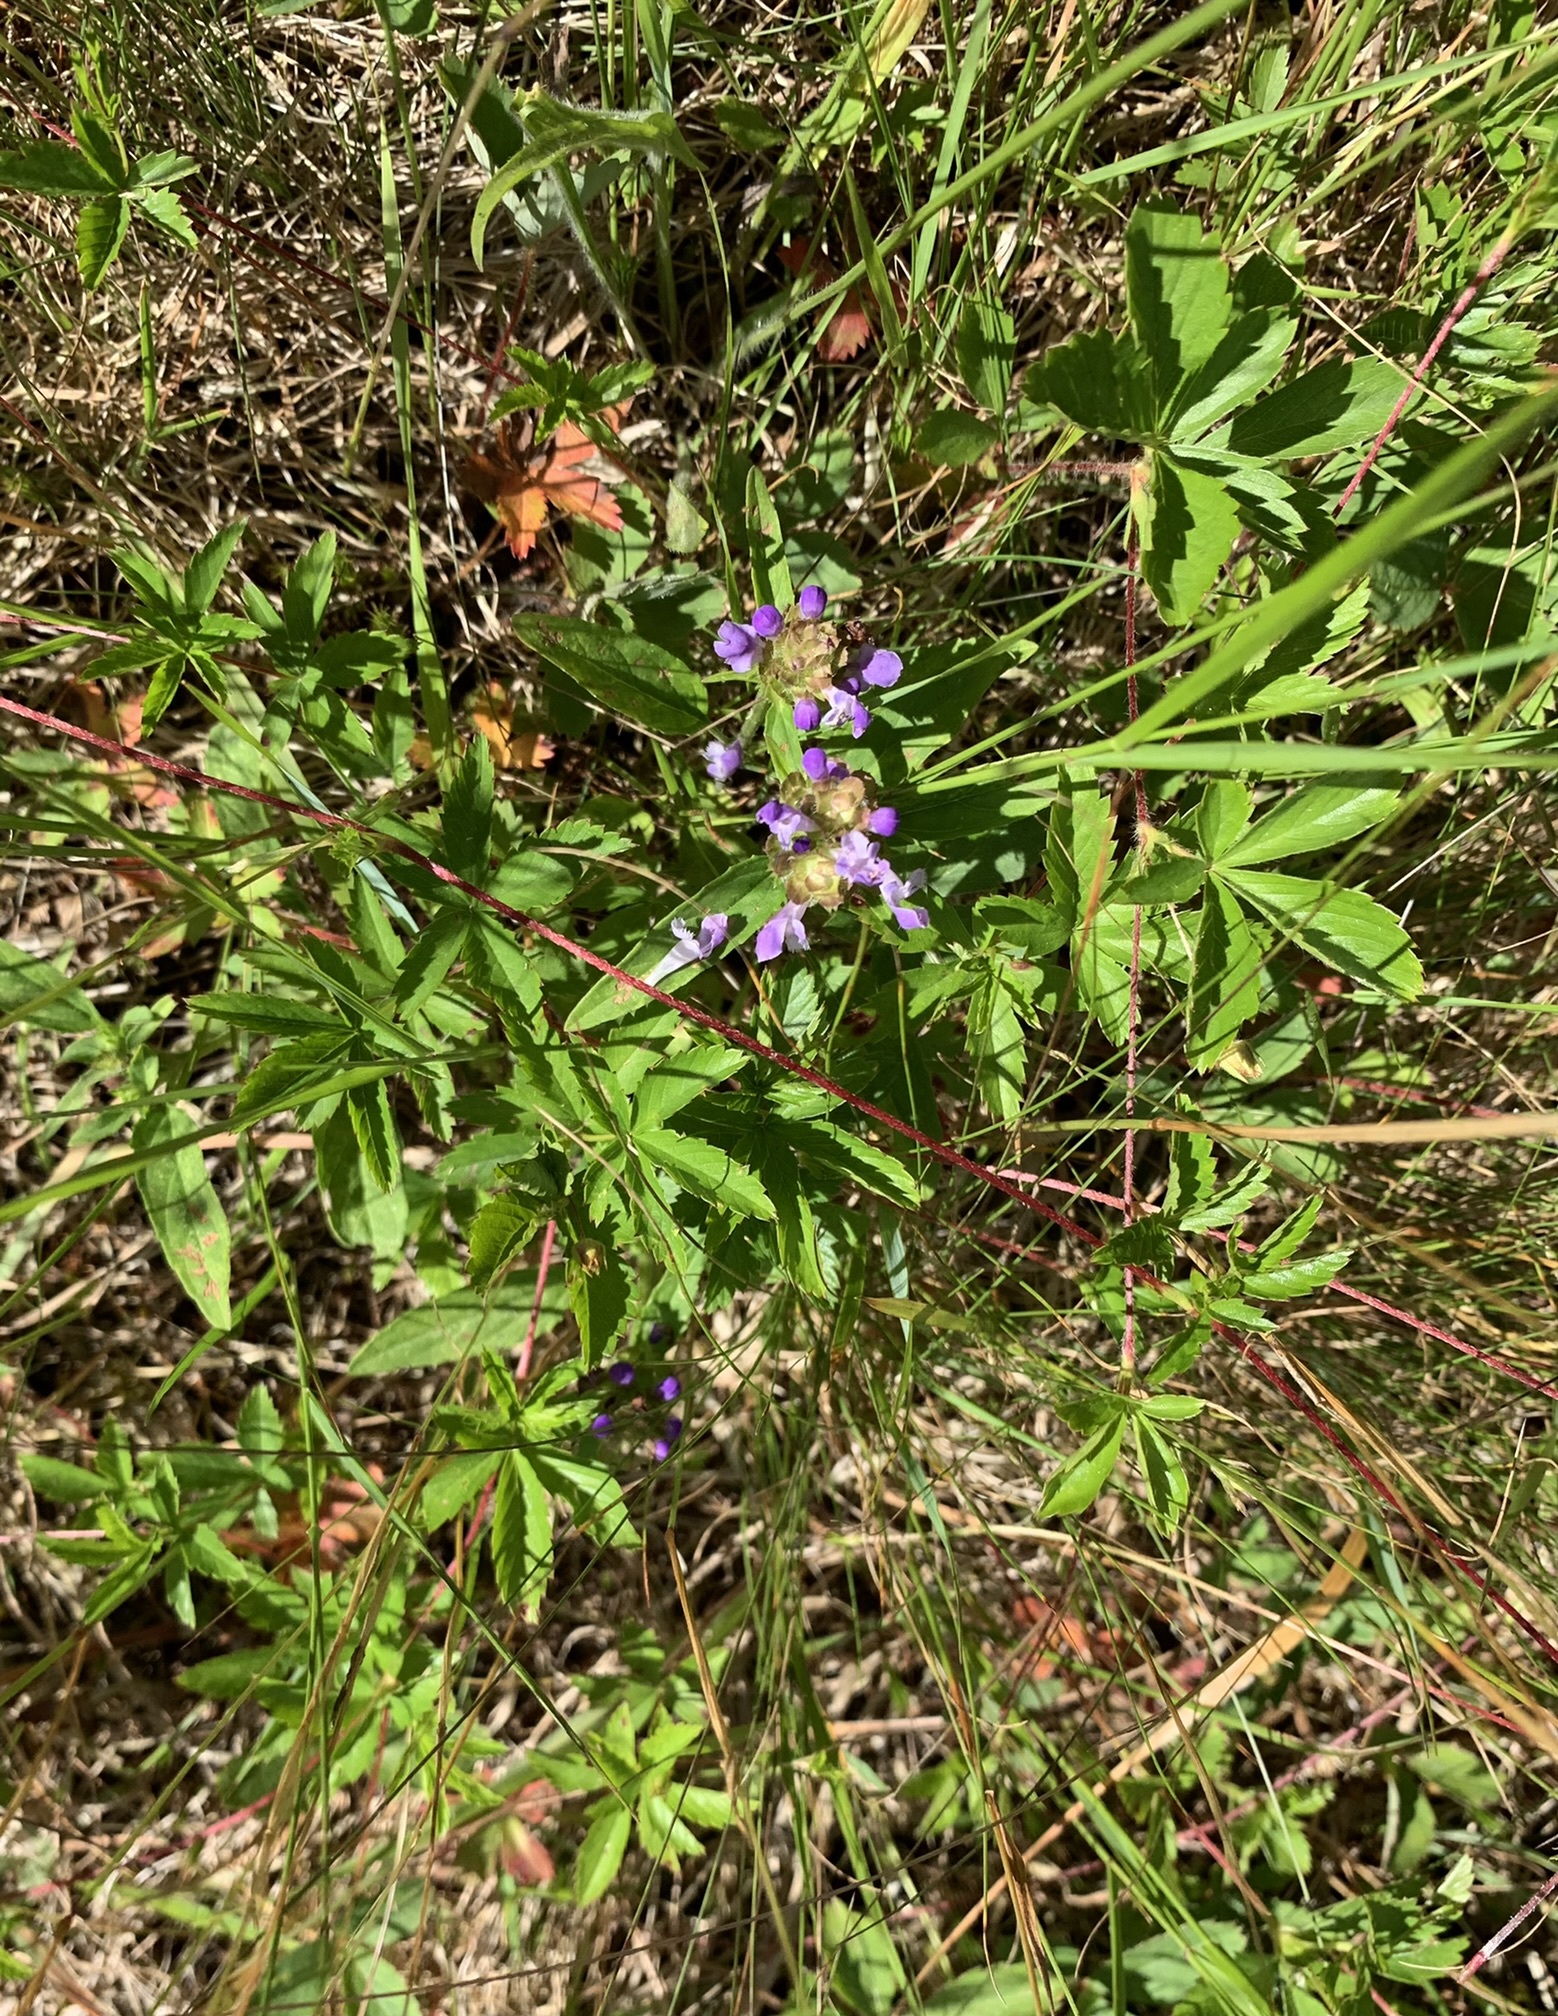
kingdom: Plantae
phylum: Tracheophyta
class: Magnoliopsida
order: Lamiales
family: Lamiaceae
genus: Prunella
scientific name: Prunella vulgaris
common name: Heal-all
